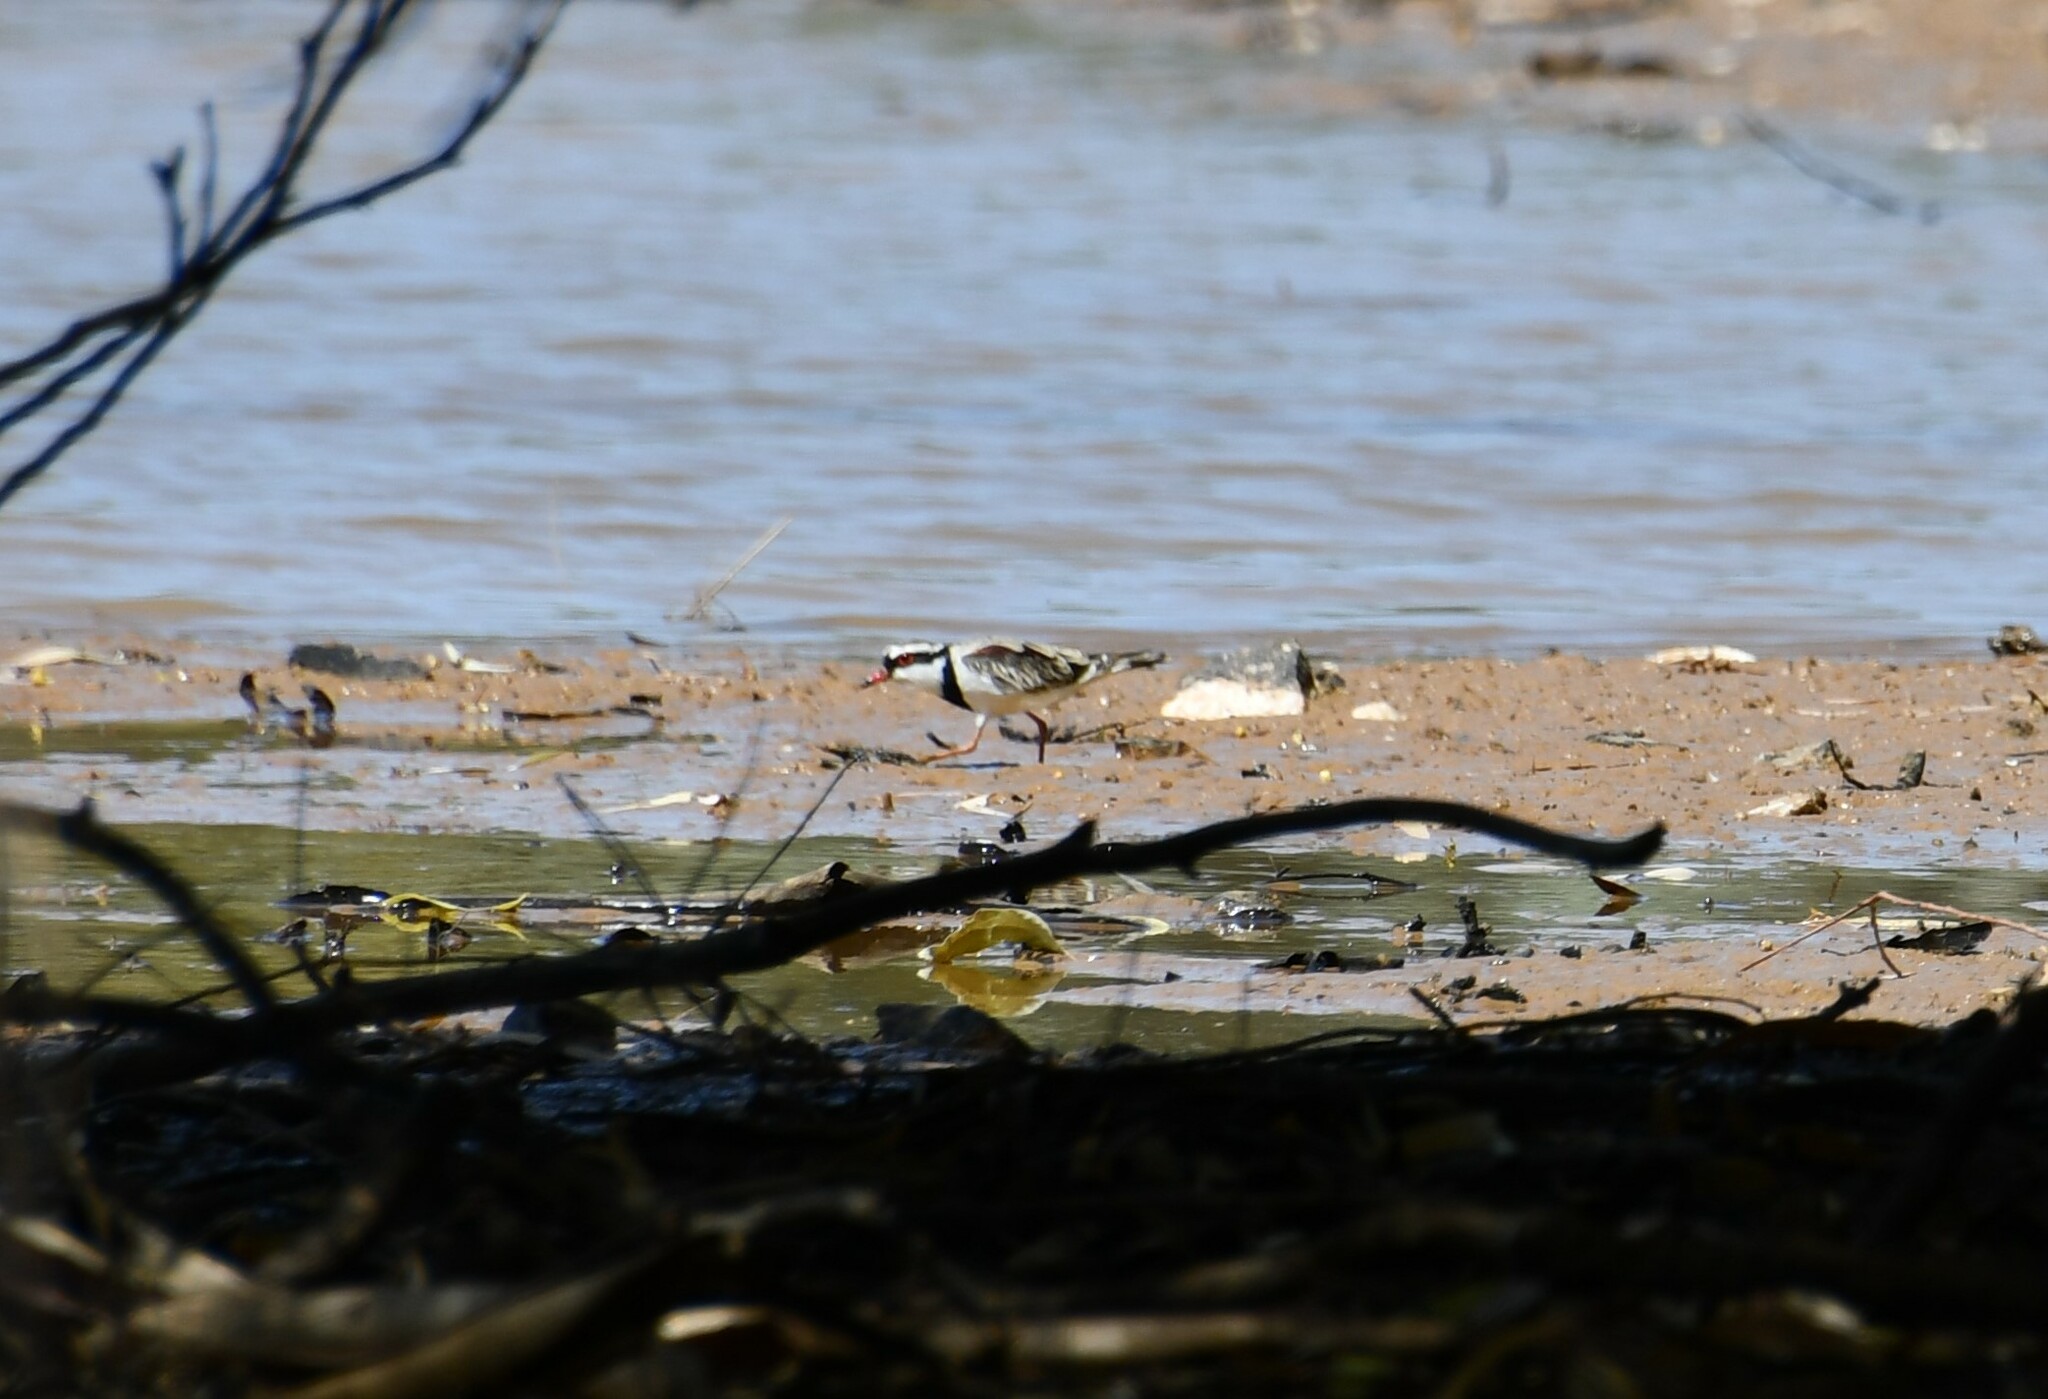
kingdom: Animalia
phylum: Chordata
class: Aves
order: Charadriiformes
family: Charadriidae
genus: Elseyornis
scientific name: Elseyornis melanops
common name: Black-fronted dotterel
